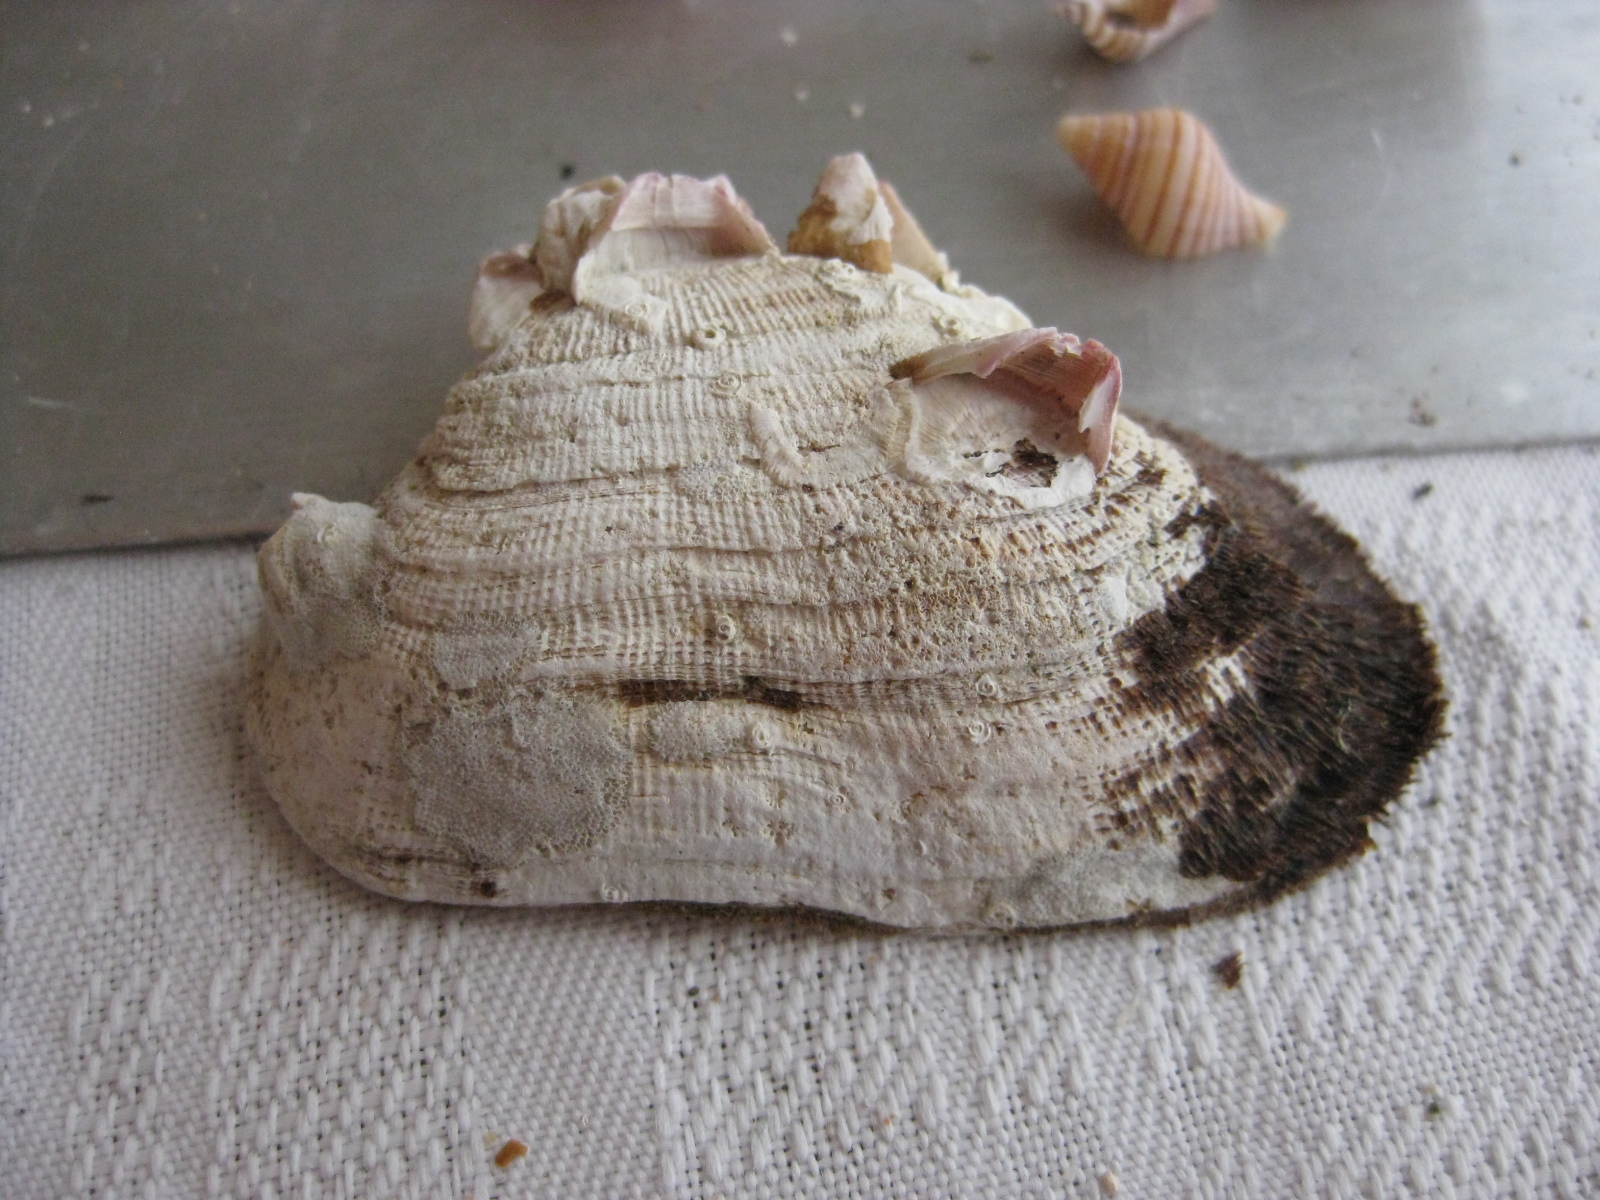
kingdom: Animalia
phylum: Mollusca
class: Bivalvia
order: Arcida
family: Arcidae
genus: Barbatia
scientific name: Barbatia novaezealandiae
